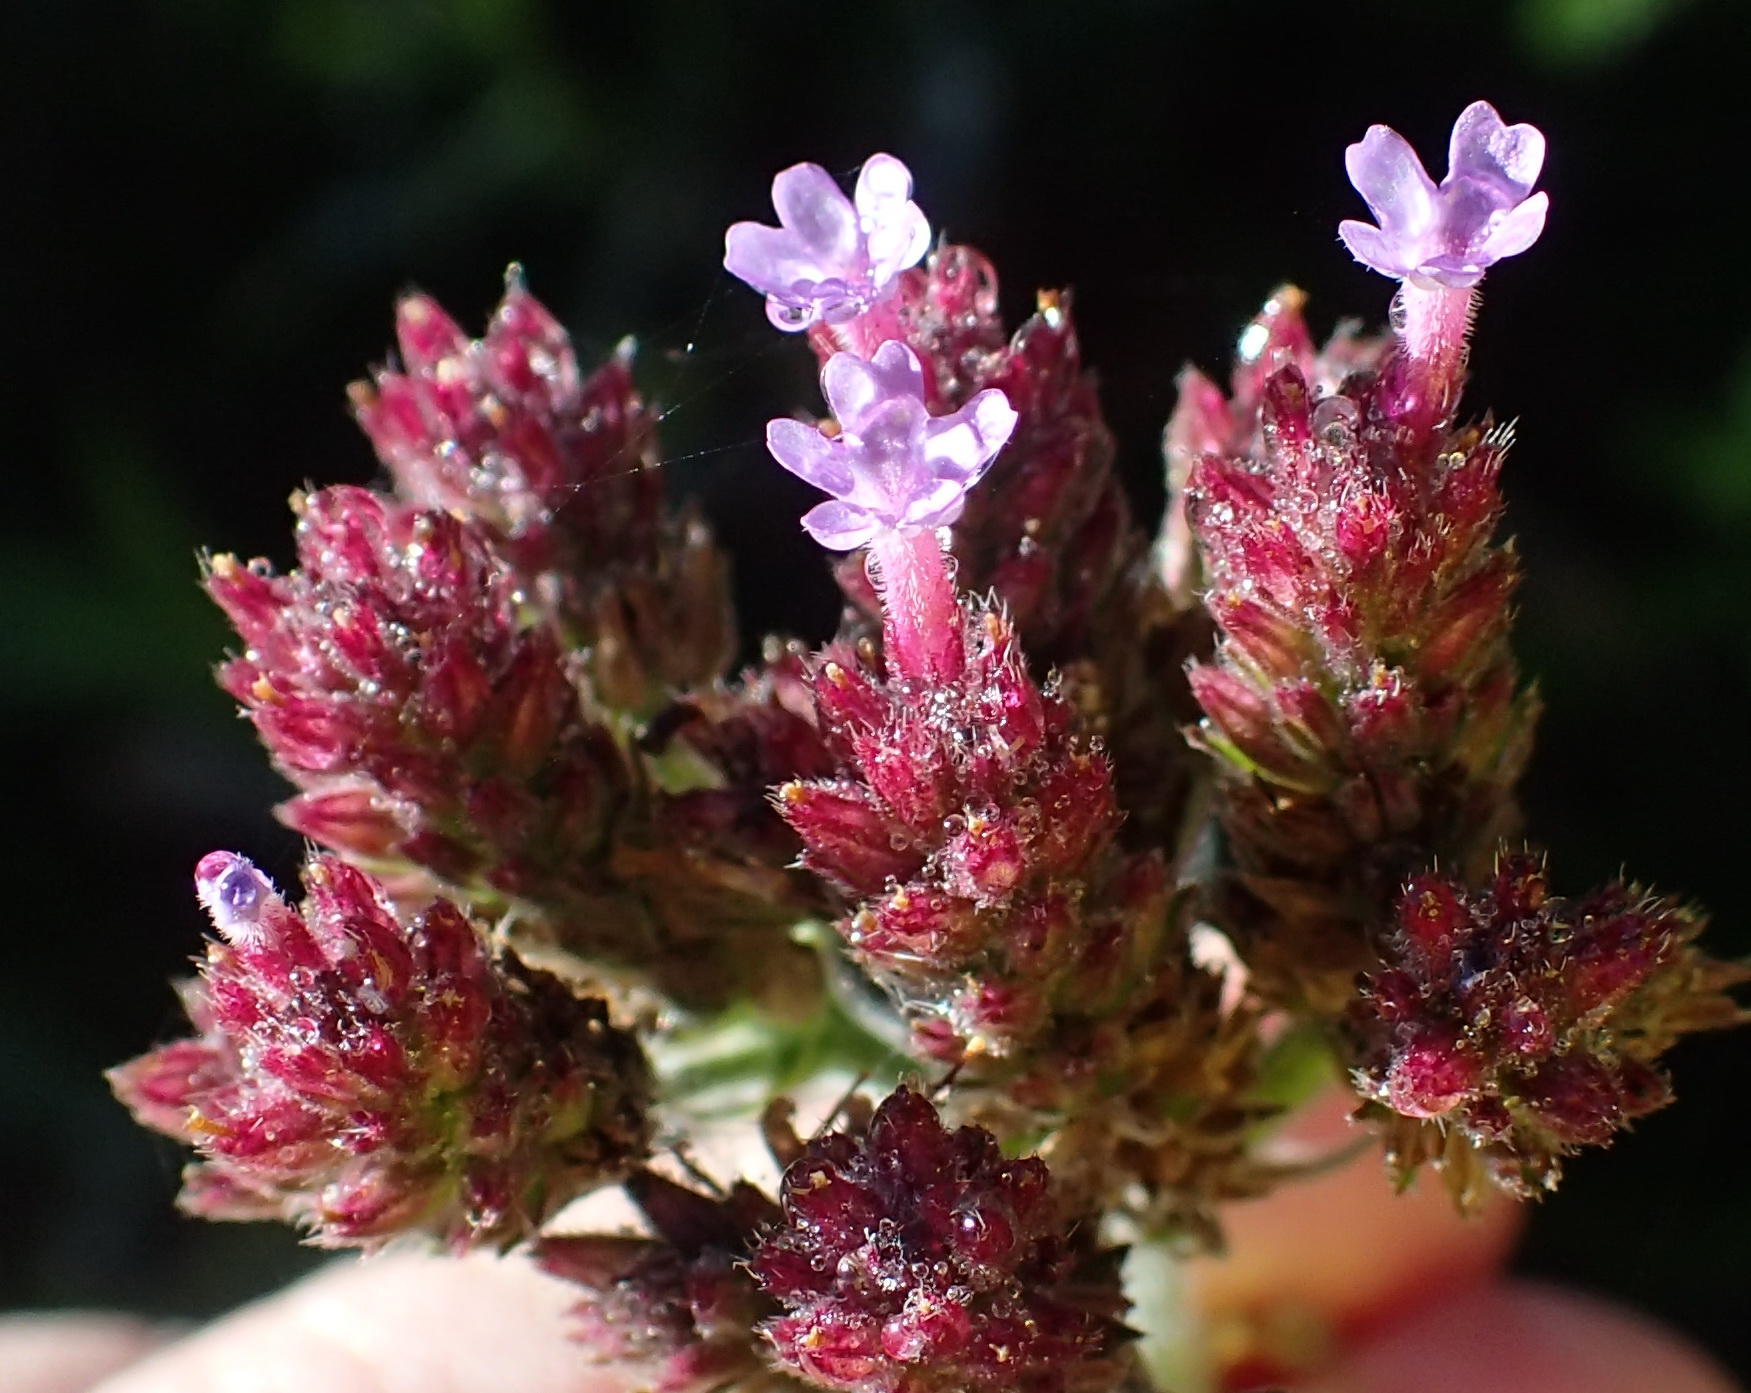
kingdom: Plantae
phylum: Tracheophyta
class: Magnoliopsida
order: Lamiales
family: Verbenaceae
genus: Verbena
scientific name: Verbena bonariensis
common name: Purpletop vervain
